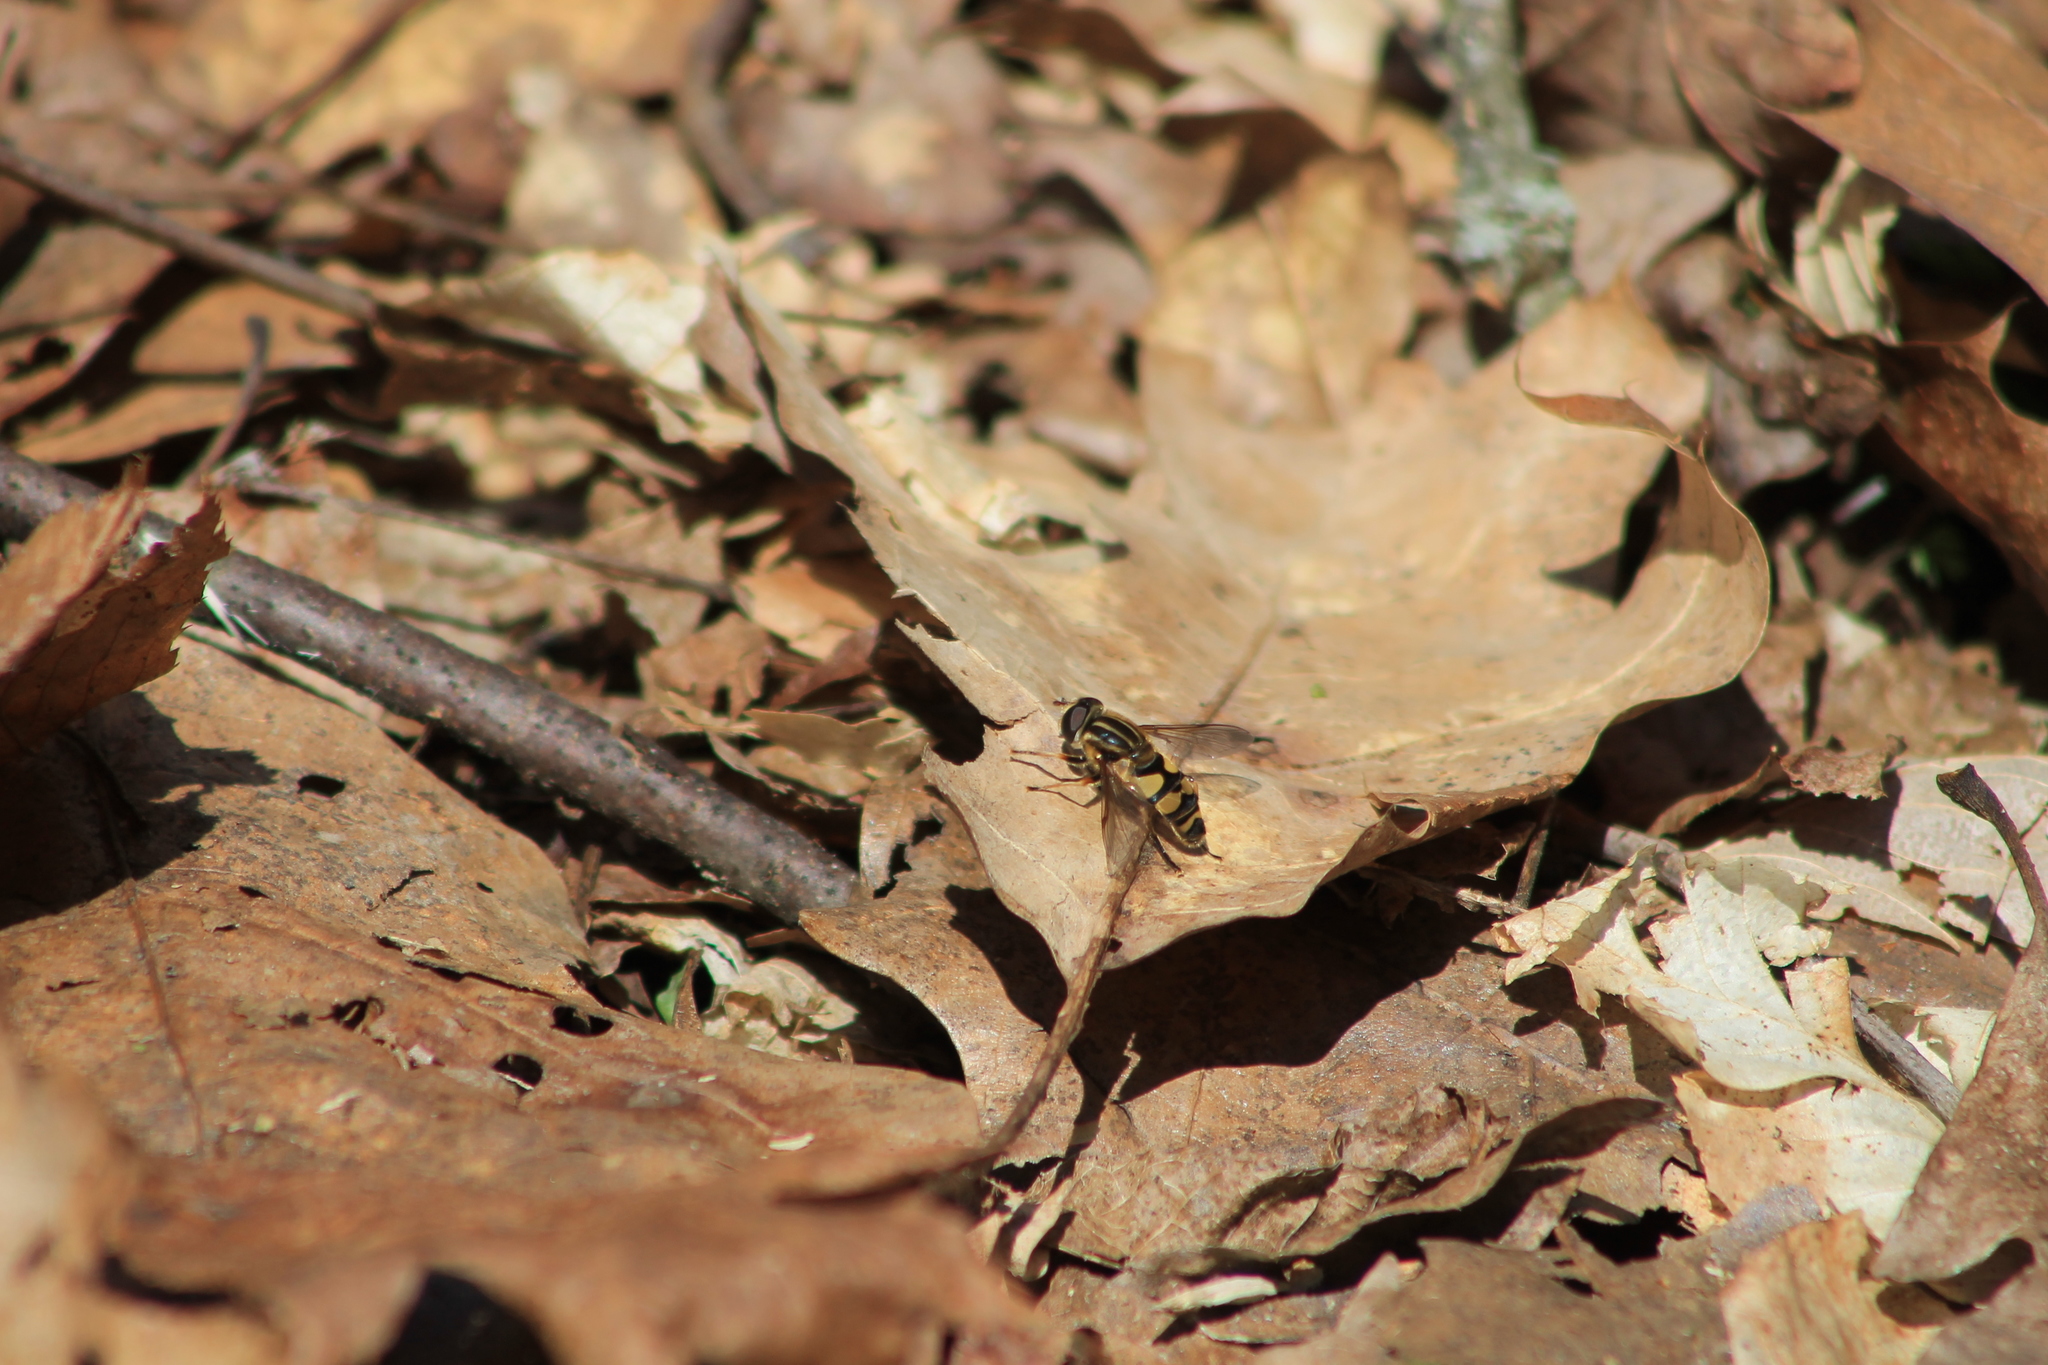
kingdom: Animalia
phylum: Arthropoda
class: Insecta
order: Diptera
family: Syrphidae
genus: Helophilus
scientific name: Helophilus fasciatus
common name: Narrow-headed marsh fly
